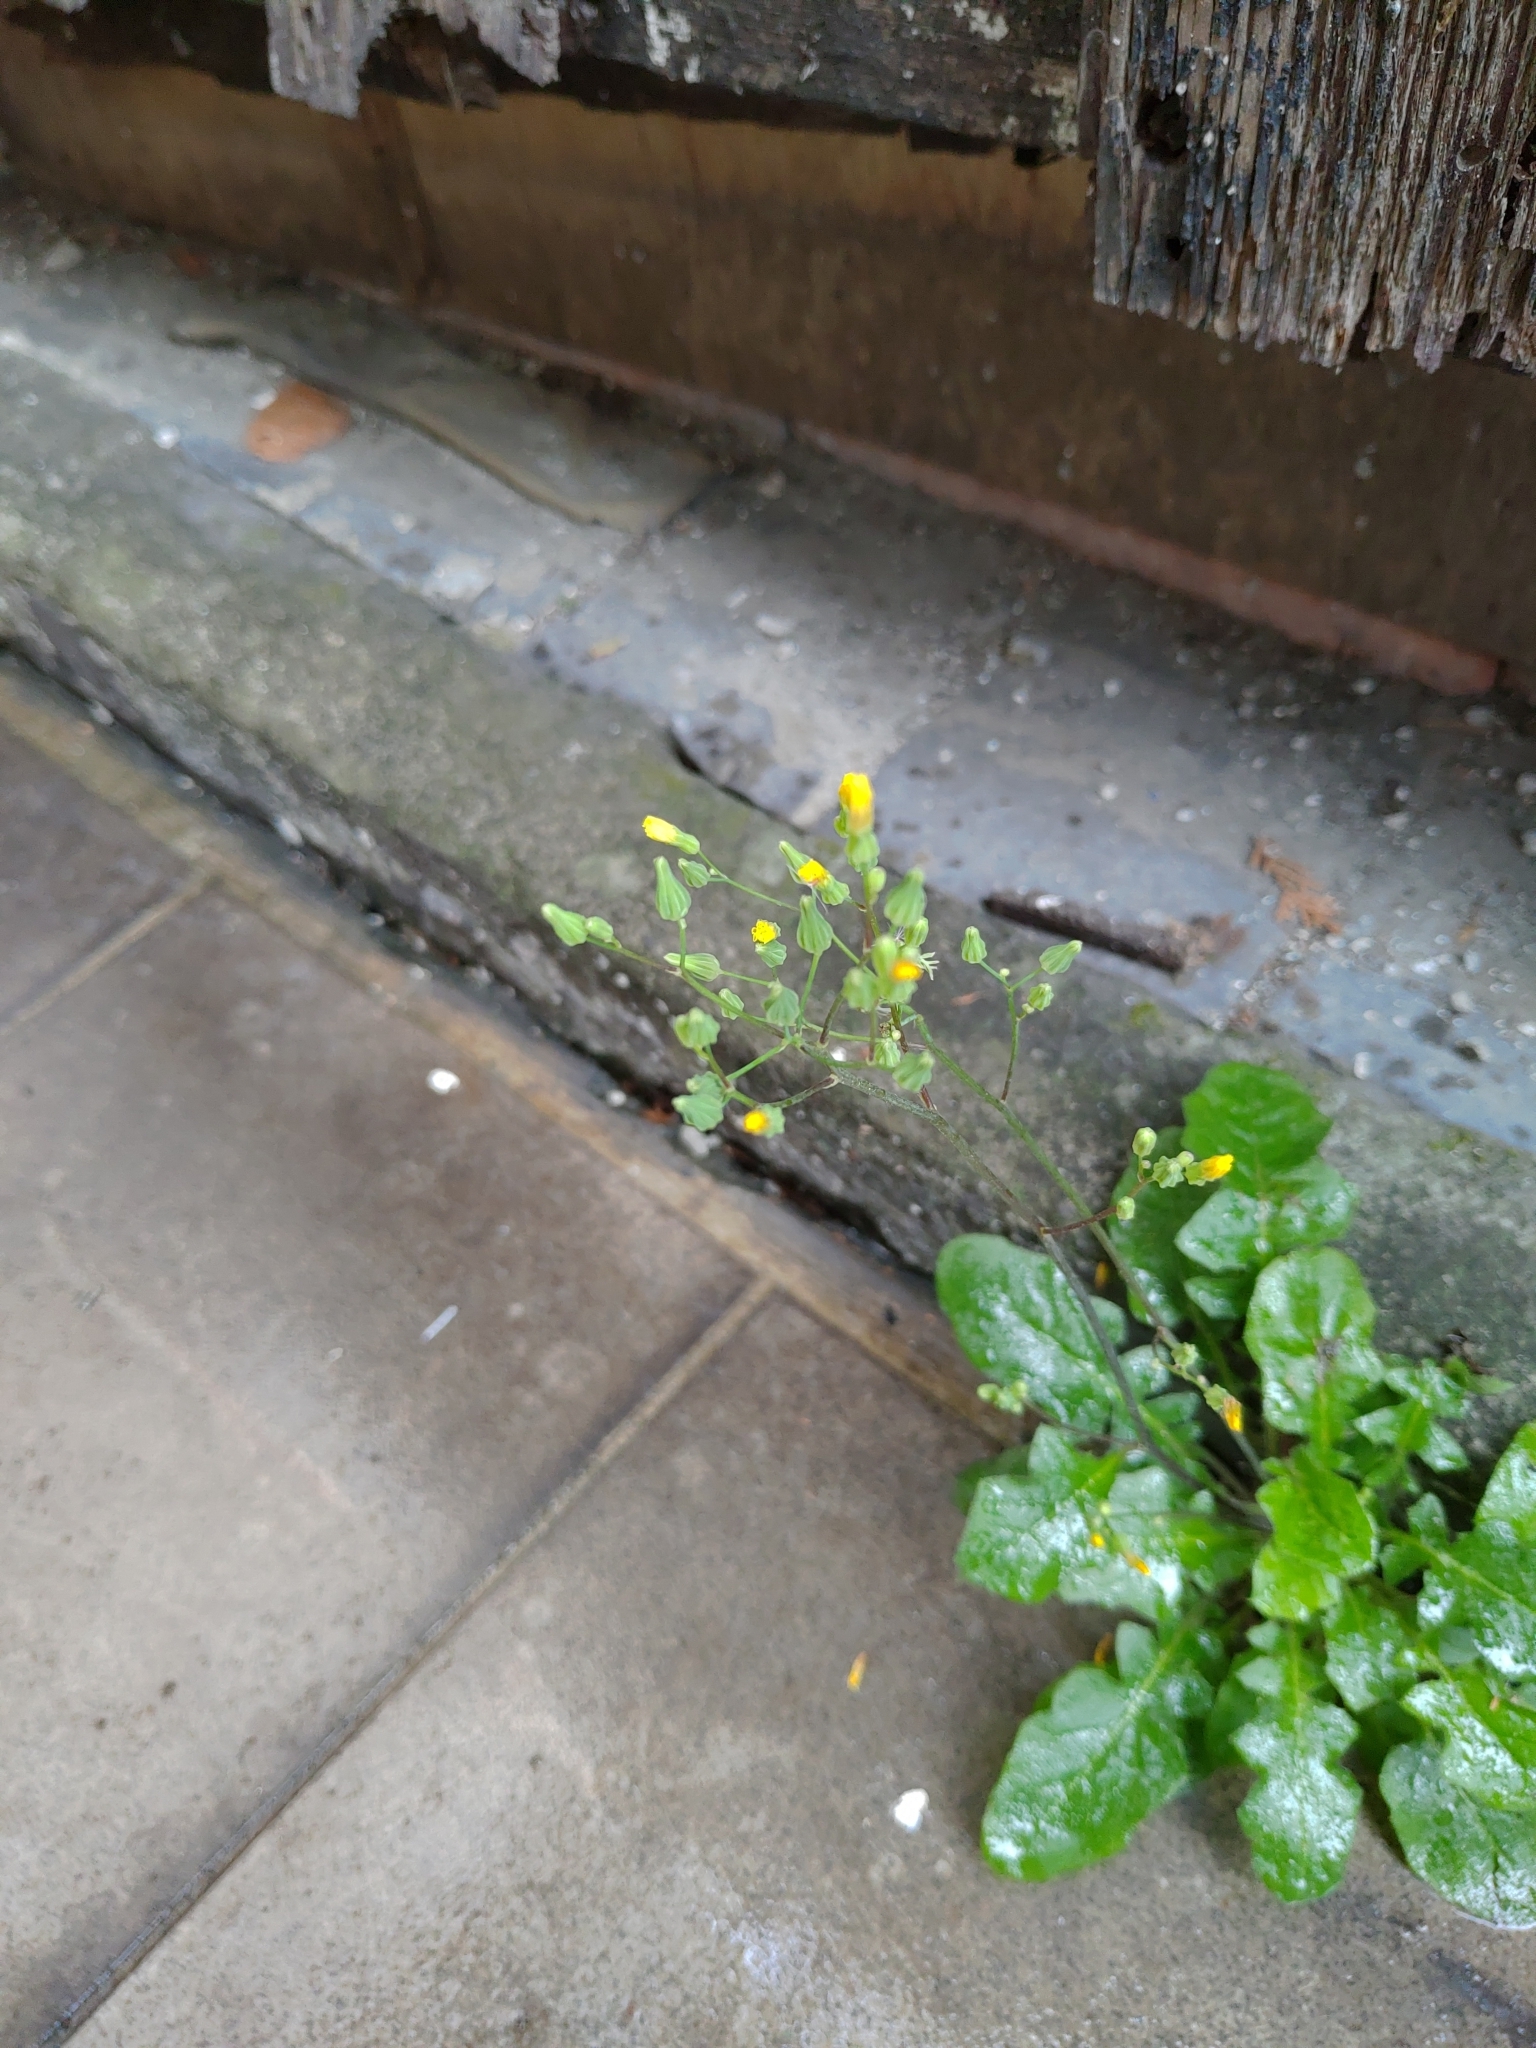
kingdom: Plantae
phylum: Tracheophyta
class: Magnoliopsida
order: Asterales
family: Asteraceae
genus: Youngia
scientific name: Youngia japonica
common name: Oriental false hawksbeard
